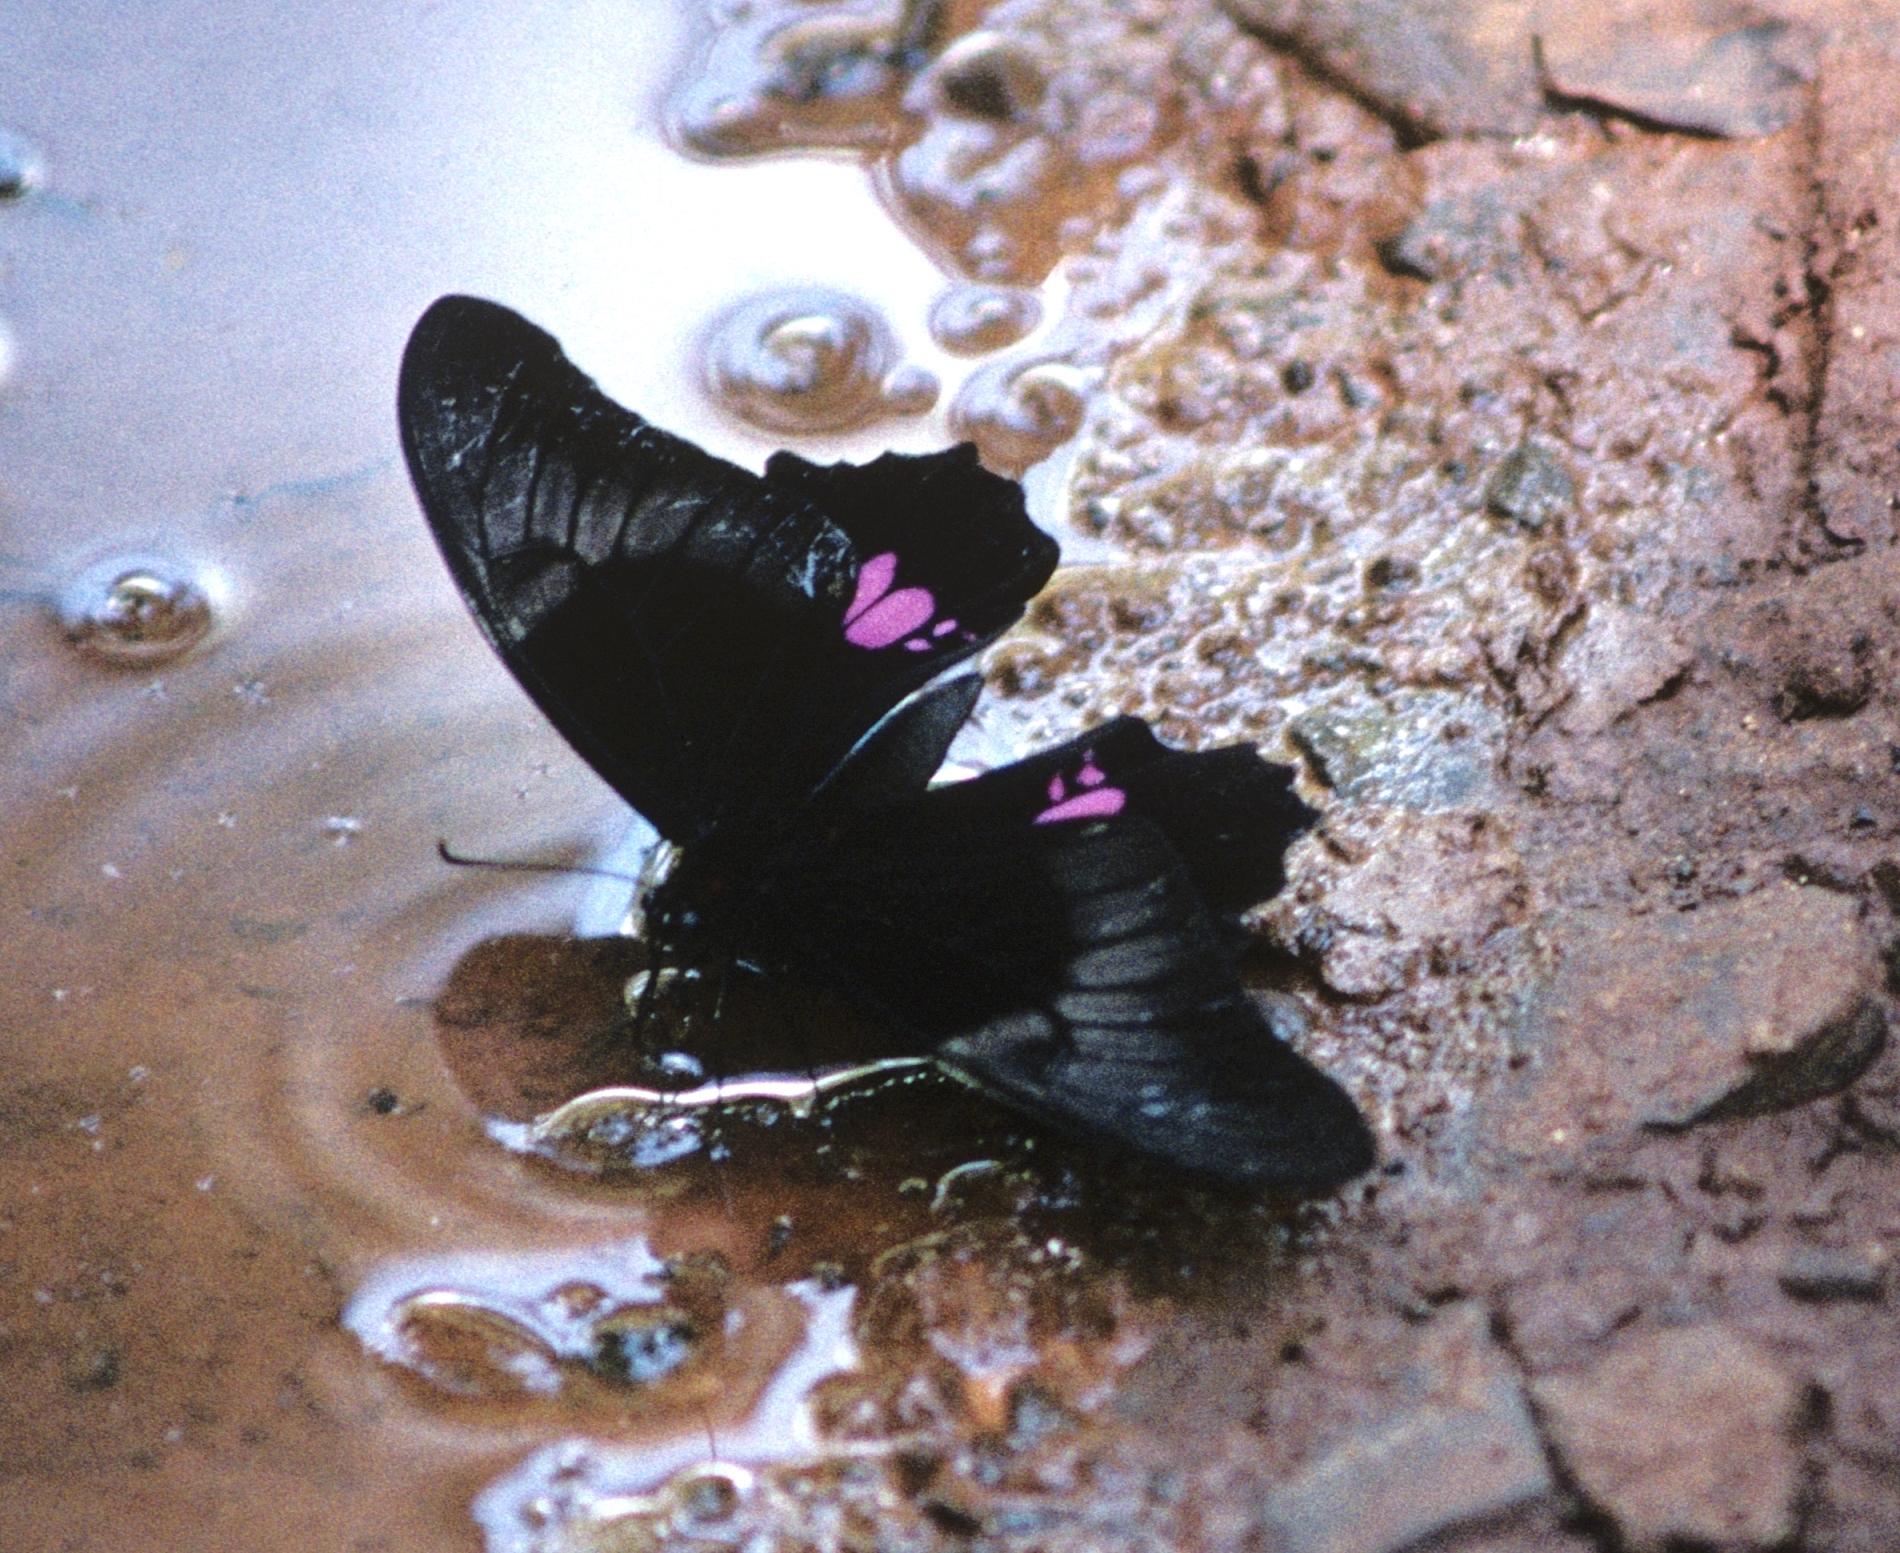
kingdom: Animalia
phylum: Arthropoda
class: Insecta
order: Lepidoptera
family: Papilionidae
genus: Papilio
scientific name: Papilio anchisiades
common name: Idaes swallowtail
